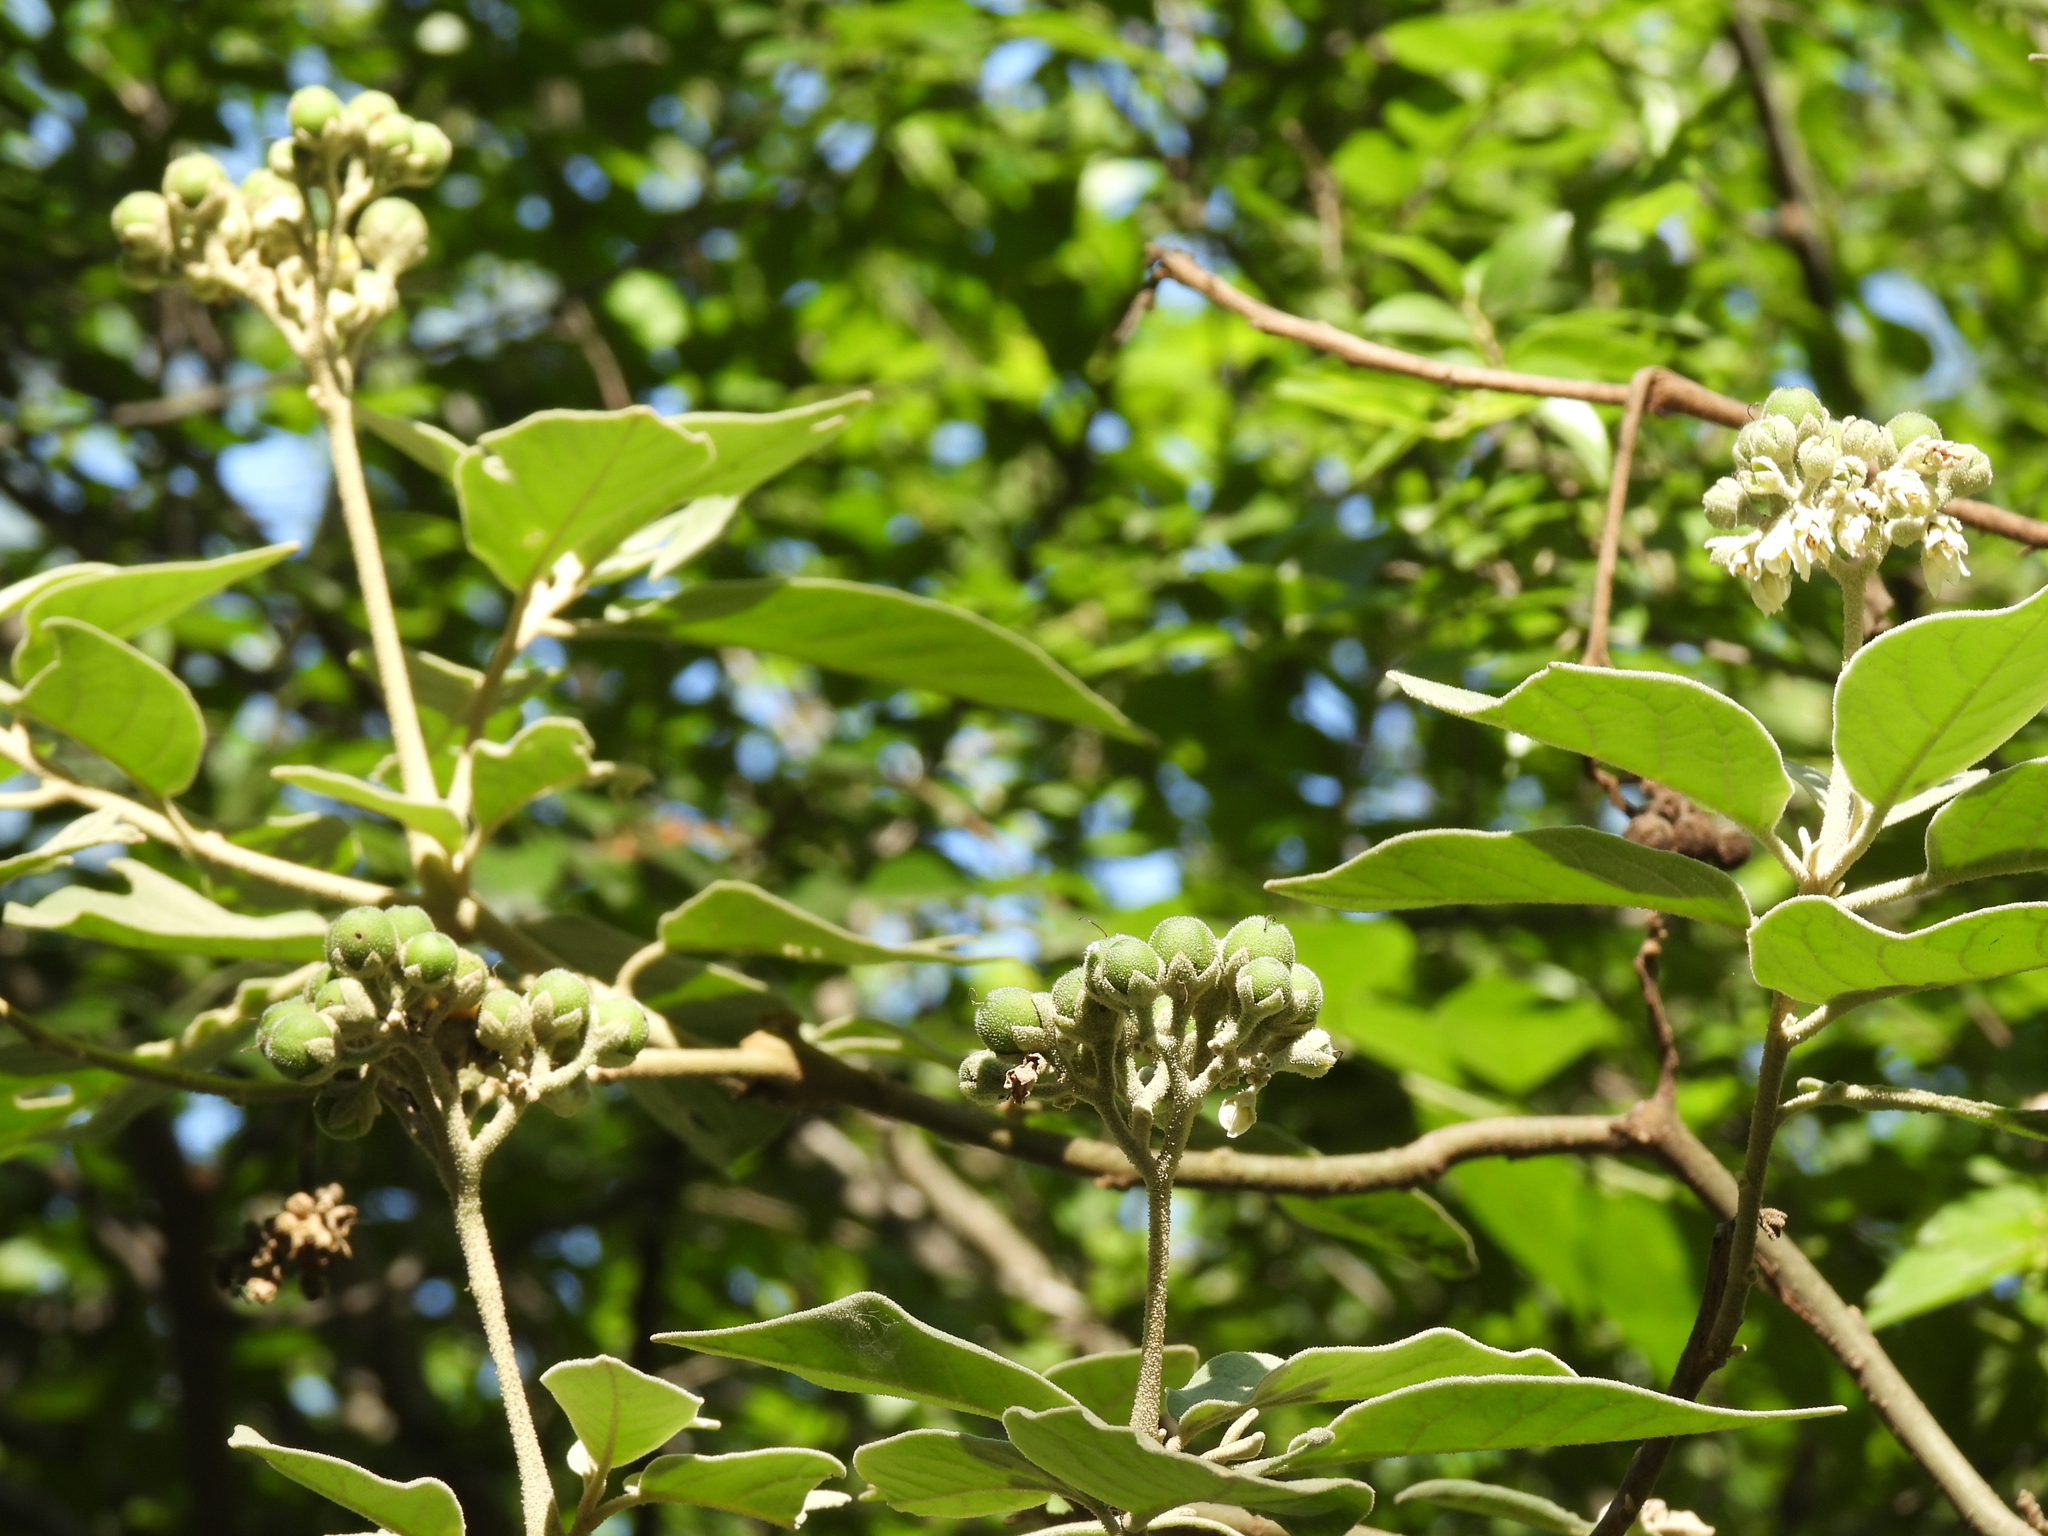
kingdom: Plantae
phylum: Tracheophyta
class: Magnoliopsida
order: Solanales
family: Solanaceae
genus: Solanum
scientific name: Solanum erianthum
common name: Tobacco-tree
